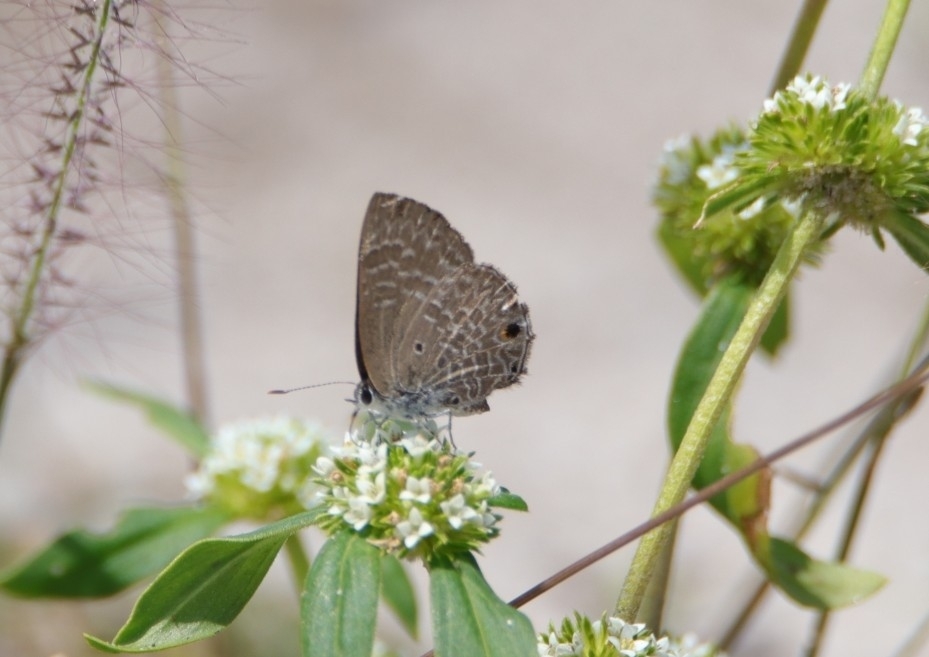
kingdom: Animalia
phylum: Arthropoda
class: Insecta
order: Lepidoptera
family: Lycaenidae
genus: Anthene
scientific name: Anthene lycaenina
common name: Pointed ciliate blue
